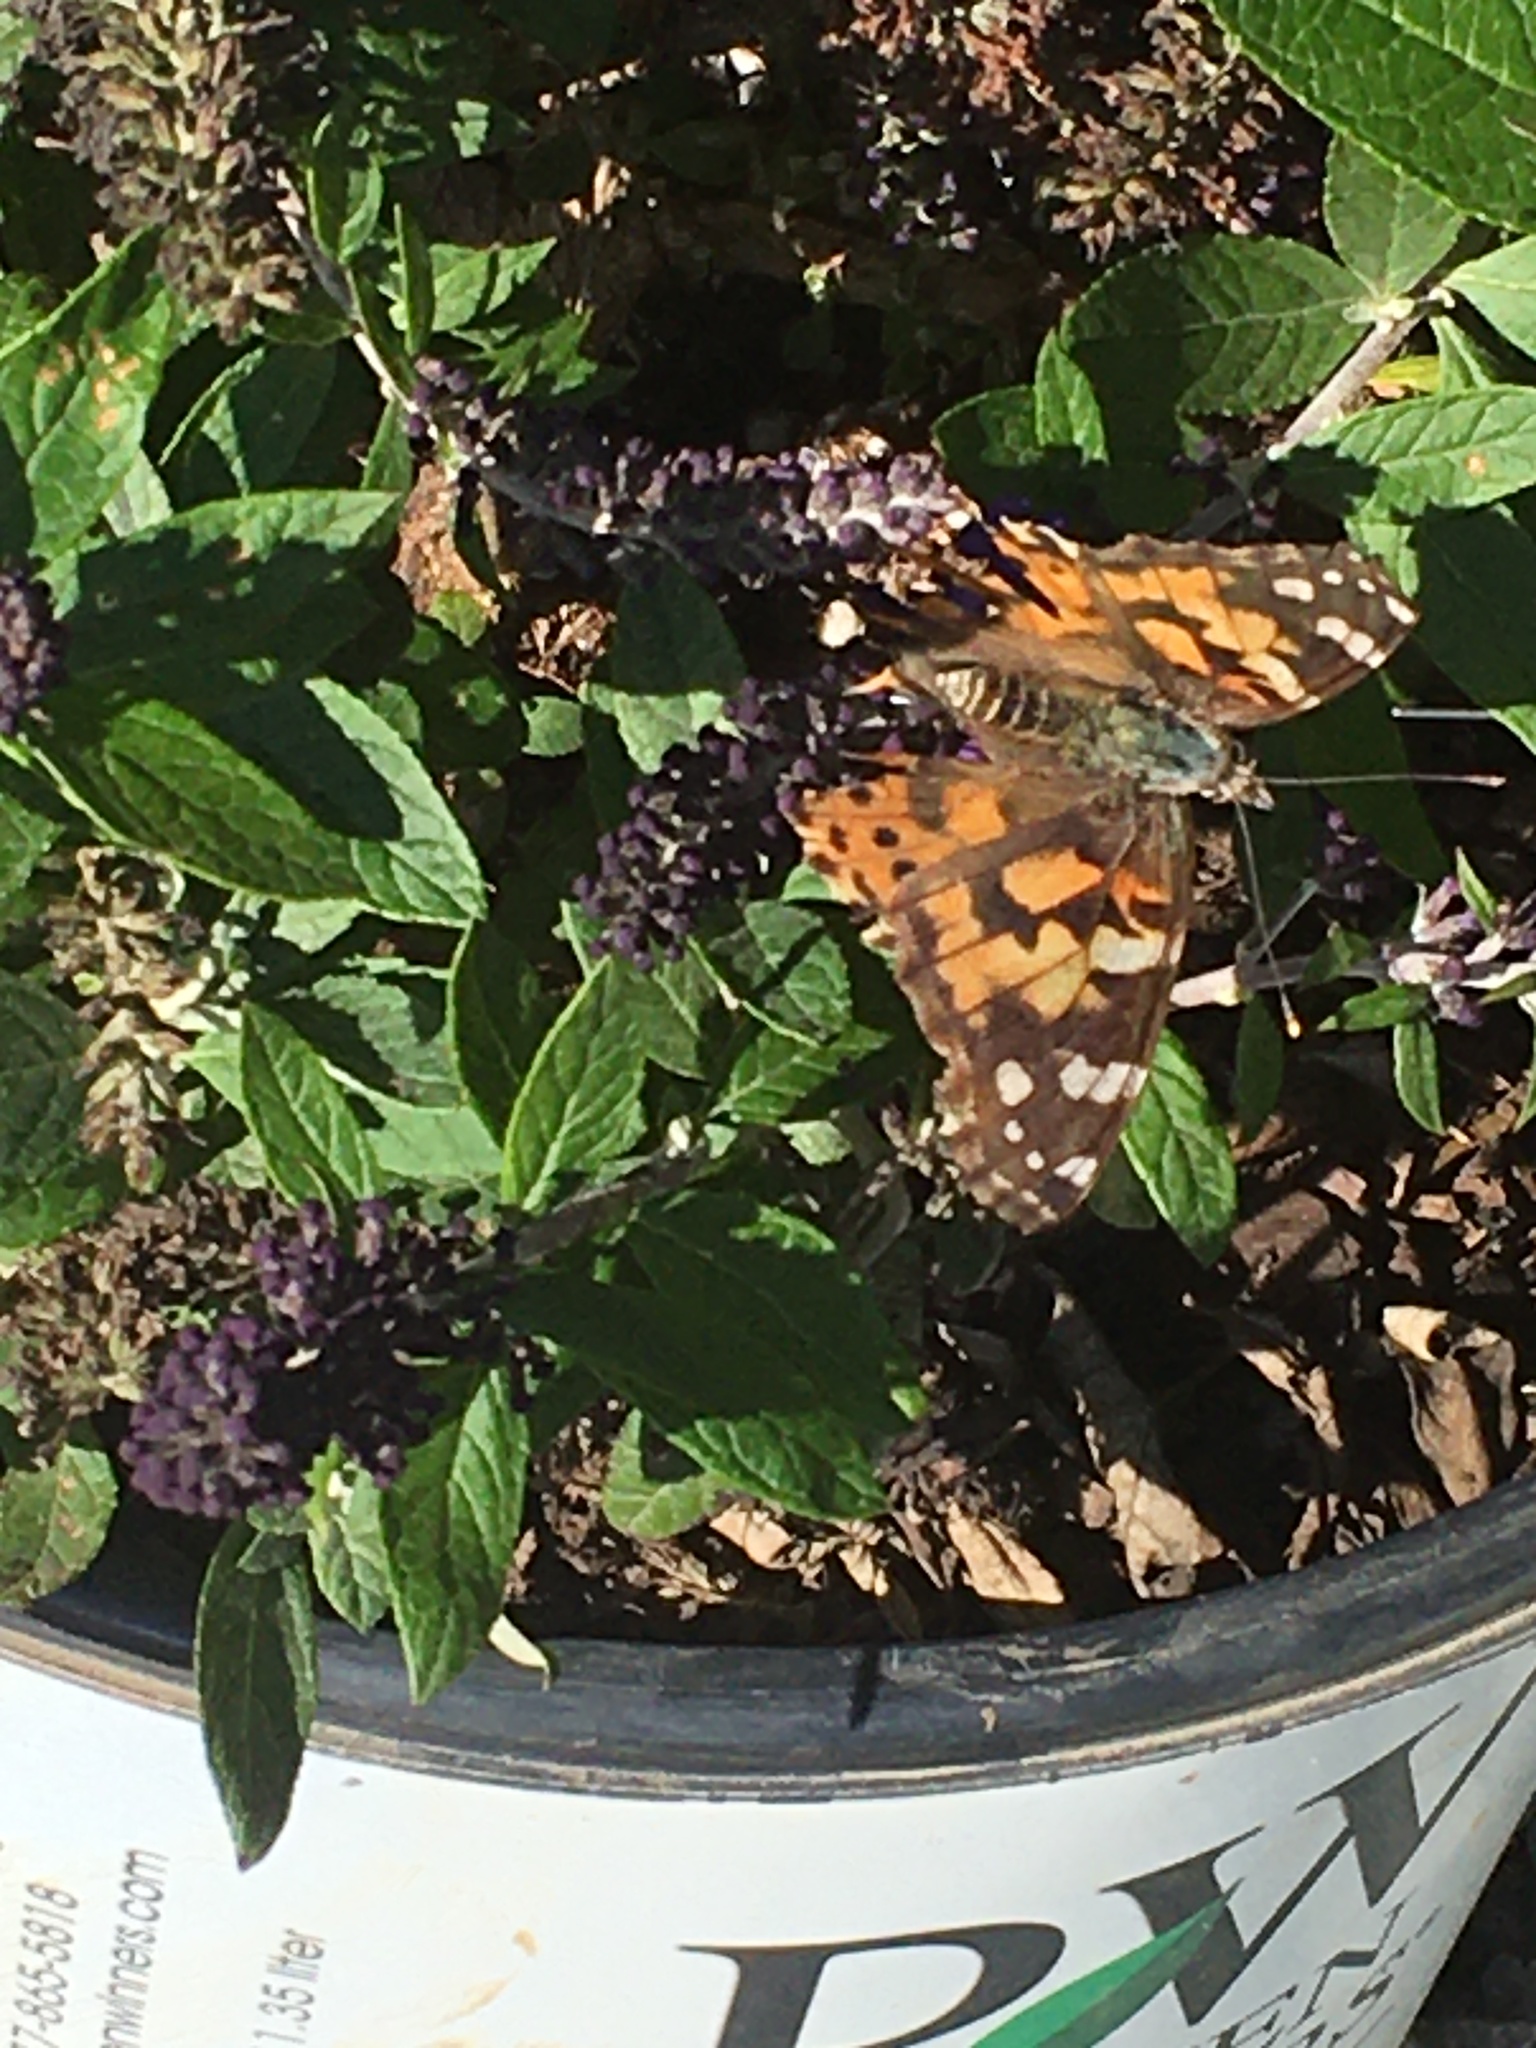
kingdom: Animalia
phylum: Arthropoda
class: Insecta
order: Lepidoptera
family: Nymphalidae
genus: Vanessa
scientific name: Vanessa cardui
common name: Painted lady
